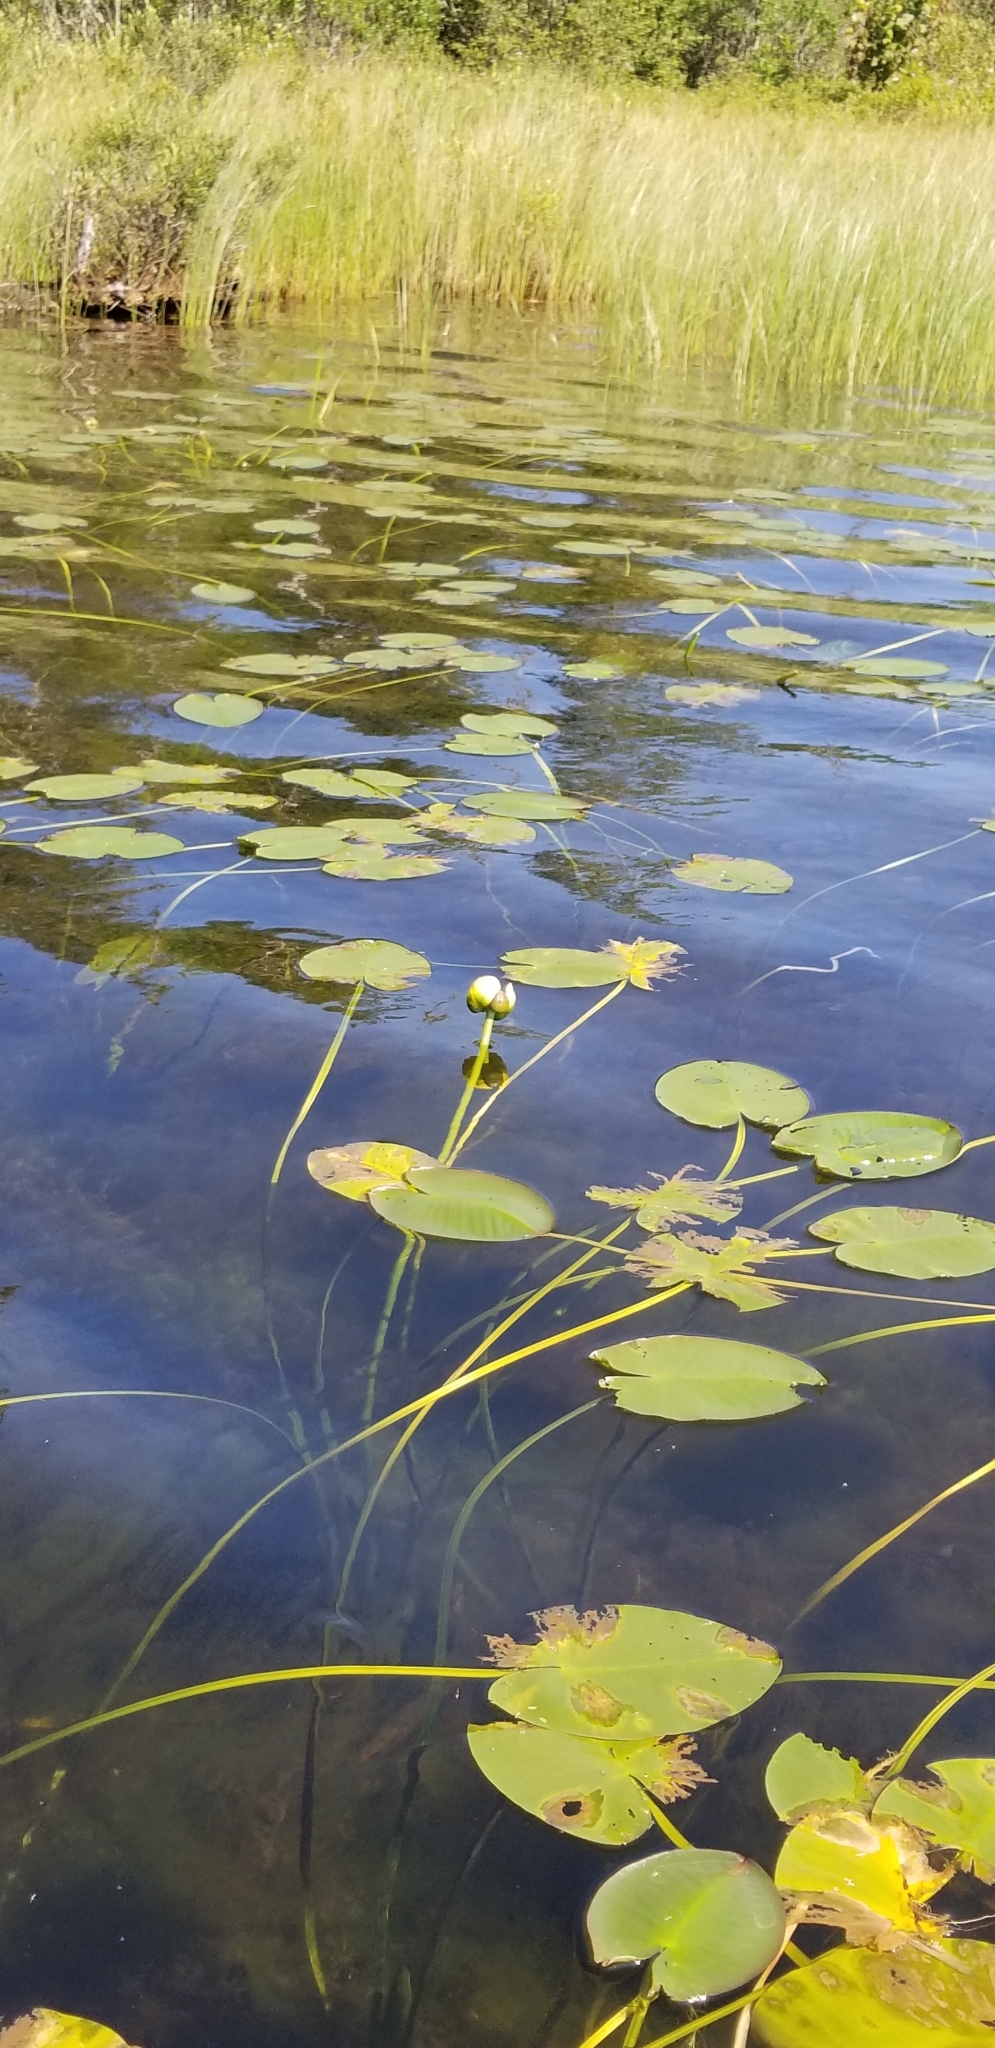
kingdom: Plantae
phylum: Tracheophyta
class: Magnoliopsida
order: Nymphaeales
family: Nymphaeaceae
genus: Nymphaea
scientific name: Nymphaea odorata
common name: Fragrant water-lily
